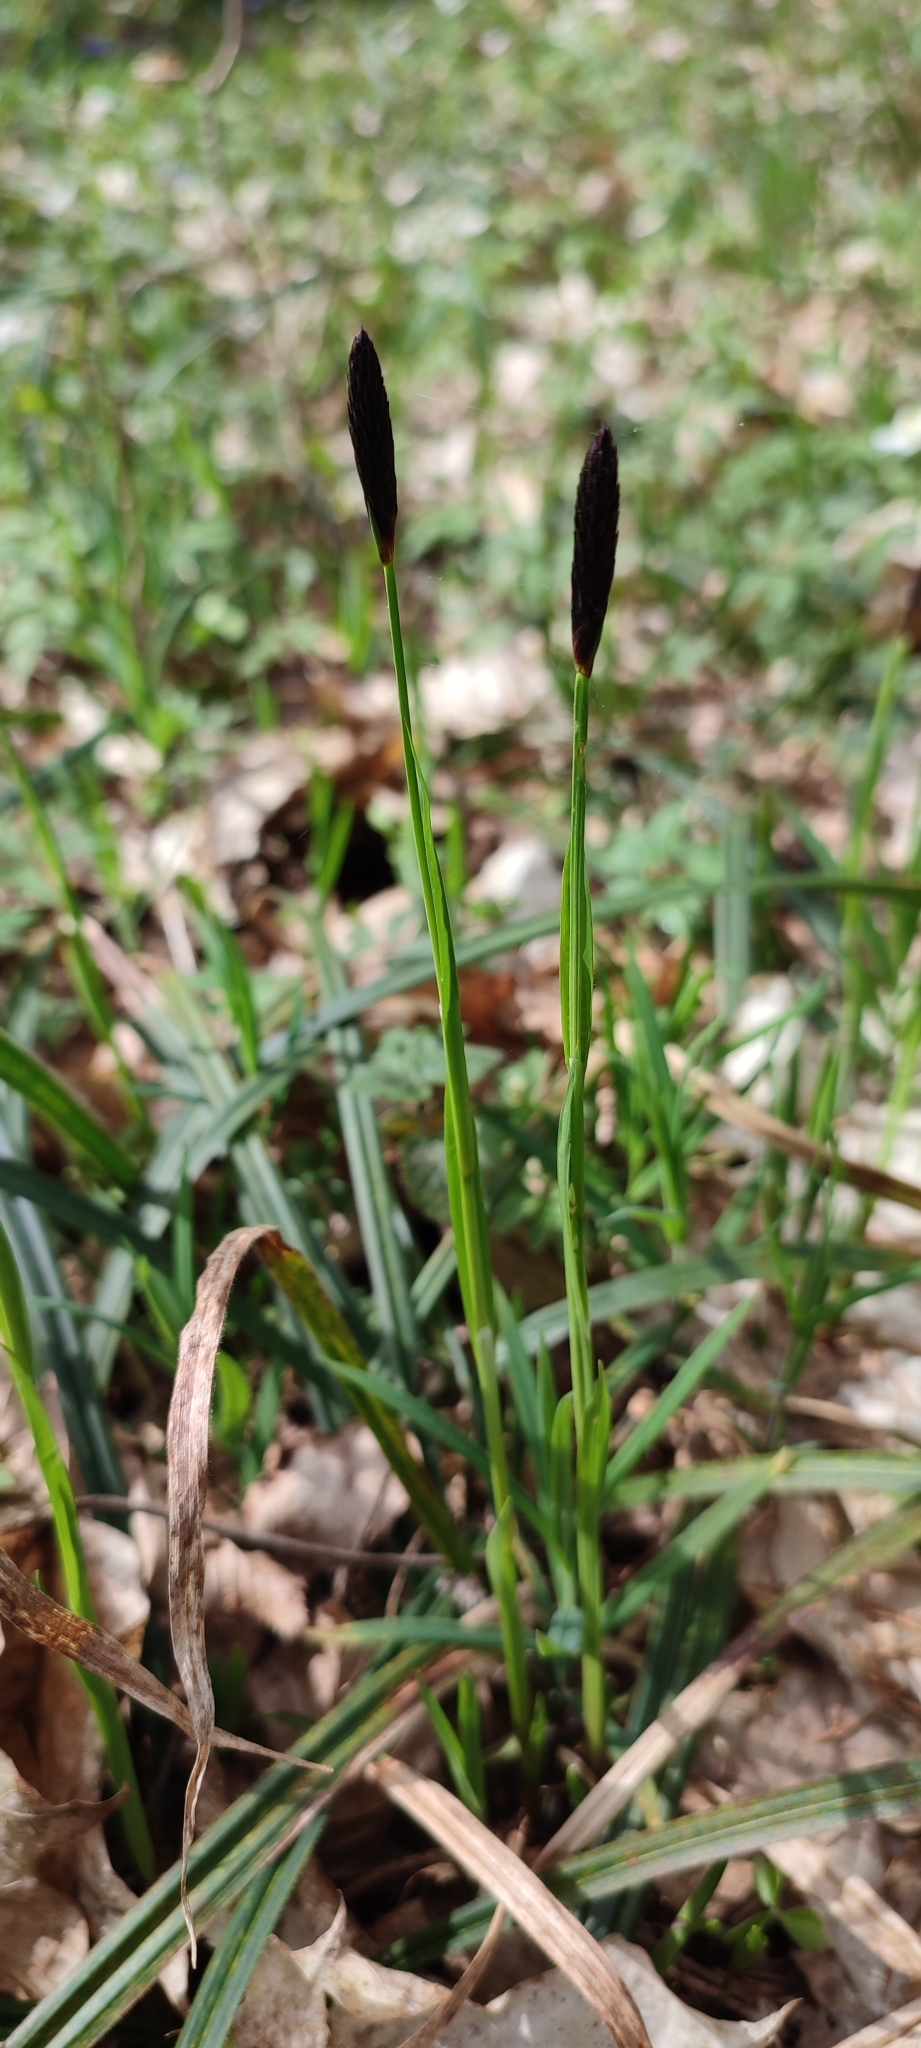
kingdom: Plantae
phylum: Tracheophyta
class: Liliopsida
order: Poales
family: Cyperaceae
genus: Carex
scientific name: Carex pilosa
